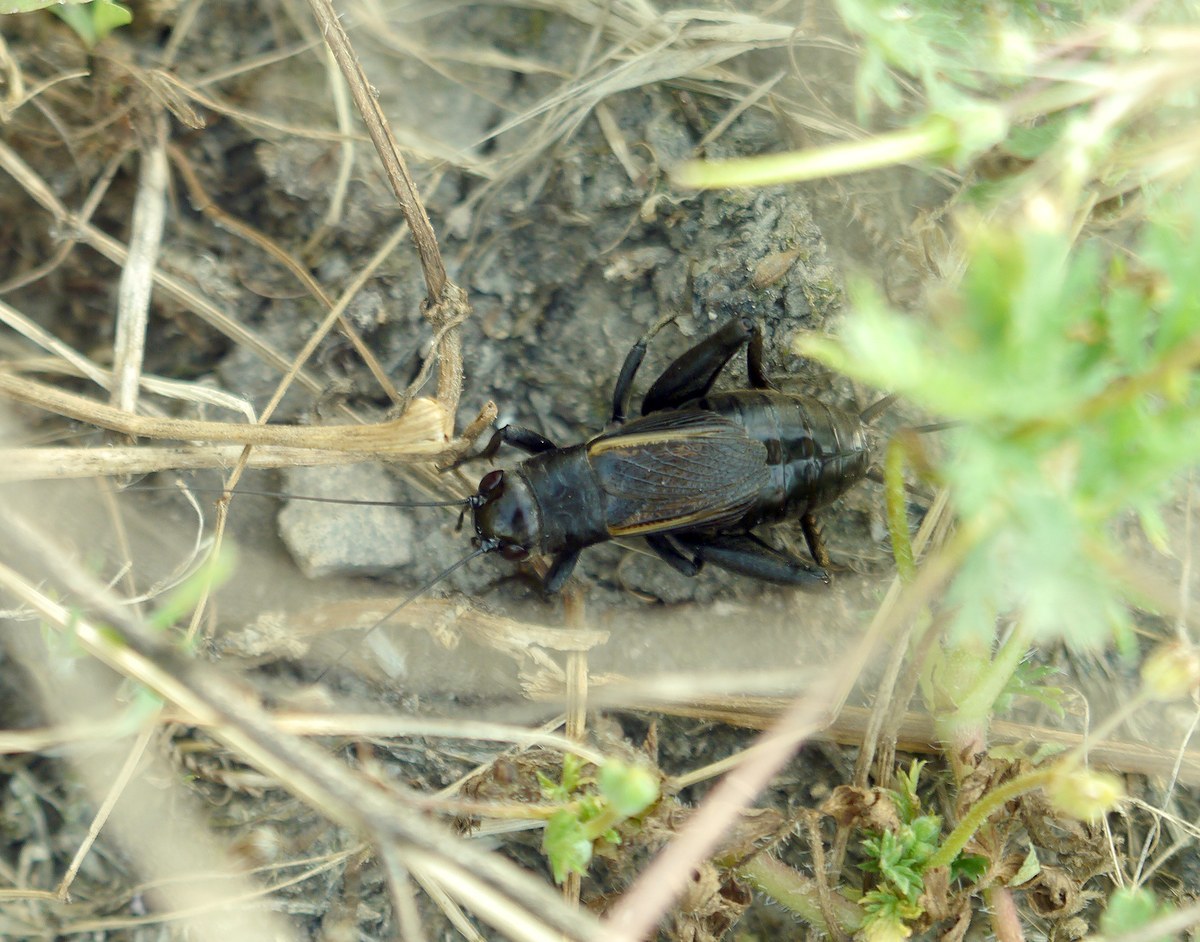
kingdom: Animalia
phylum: Arthropoda
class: Insecta
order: Orthoptera
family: Gryllidae
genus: Melanogryllus
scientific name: Melanogryllus desertus
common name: Desert cricket
